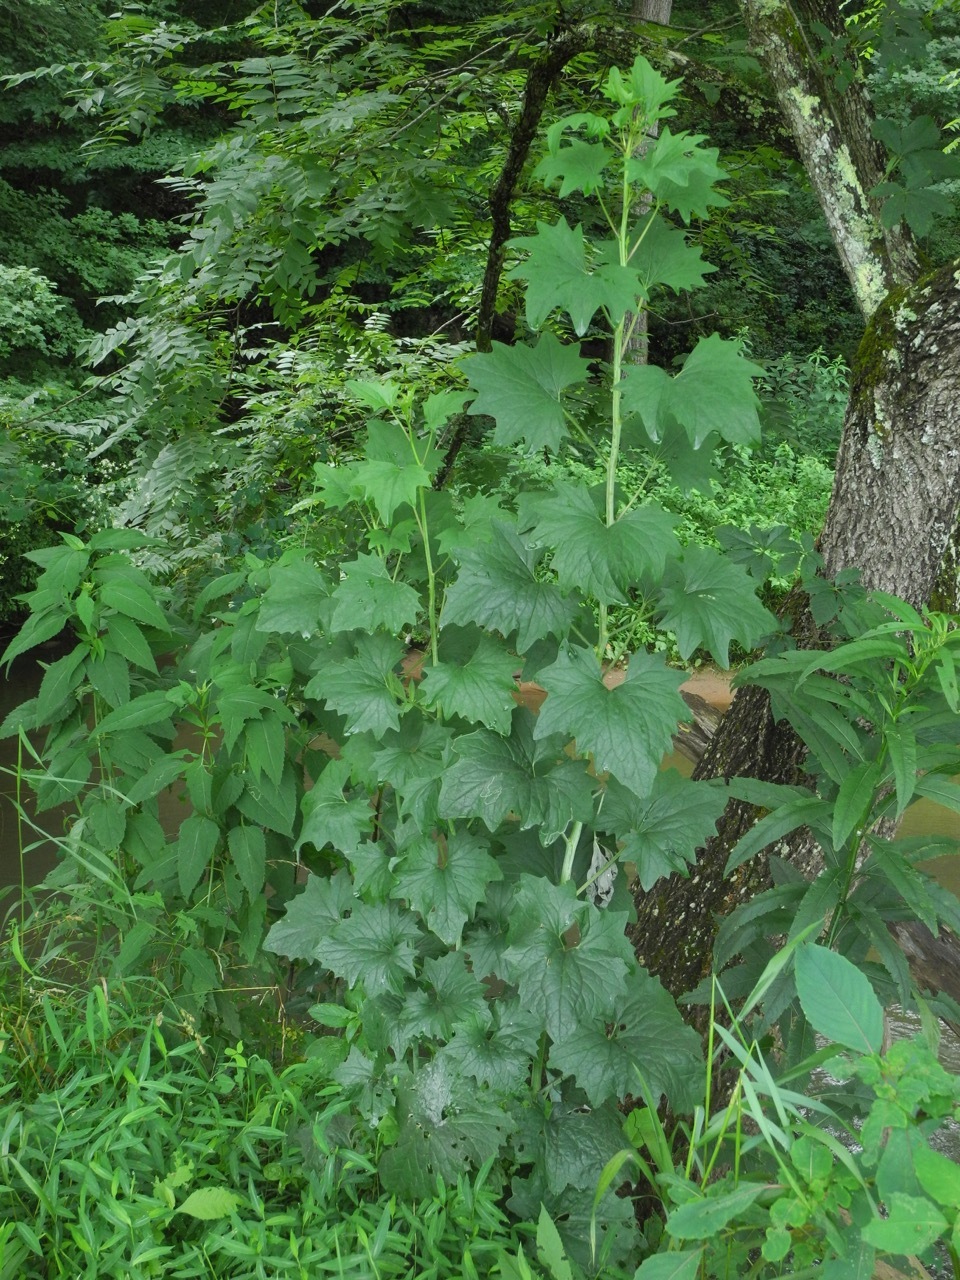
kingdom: Plantae
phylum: Tracheophyta
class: Magnoliopsida
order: Asterales
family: Asteraceae
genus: Arnoglossum
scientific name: Arnoglossum atriplicifolium
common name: Pale indian-plantain
